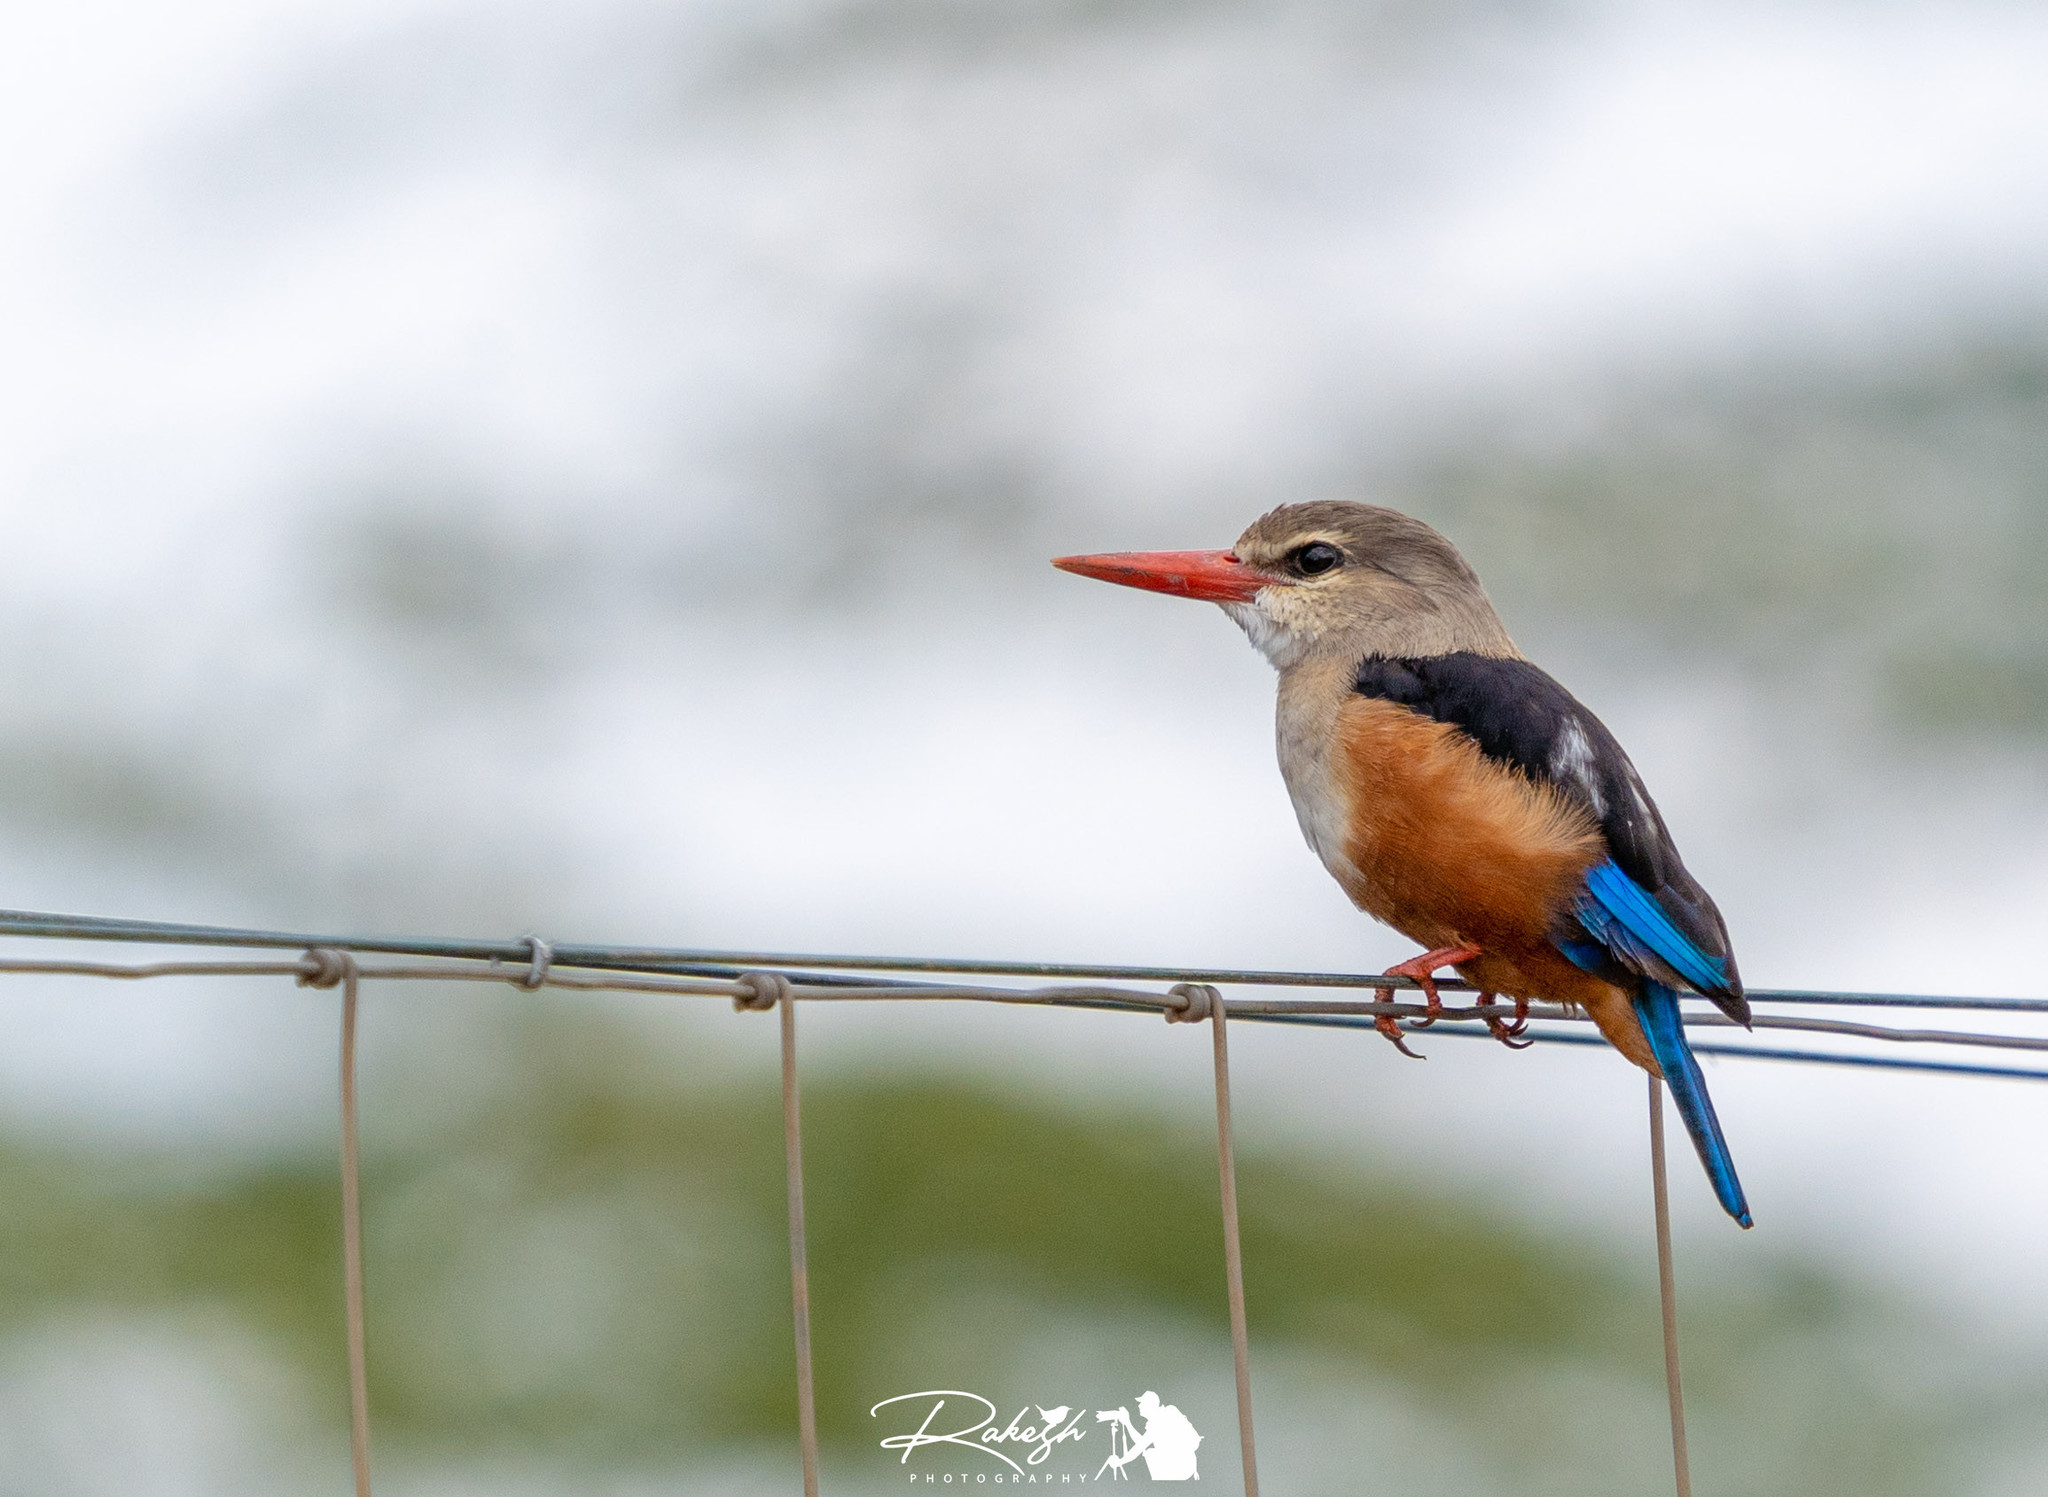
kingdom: Animalia
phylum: Chordata
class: Aves
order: Coraciiformes
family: Alcedinidae
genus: Halcyon
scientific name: Halcyon leucocephala
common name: Grey-headed kingfisher
